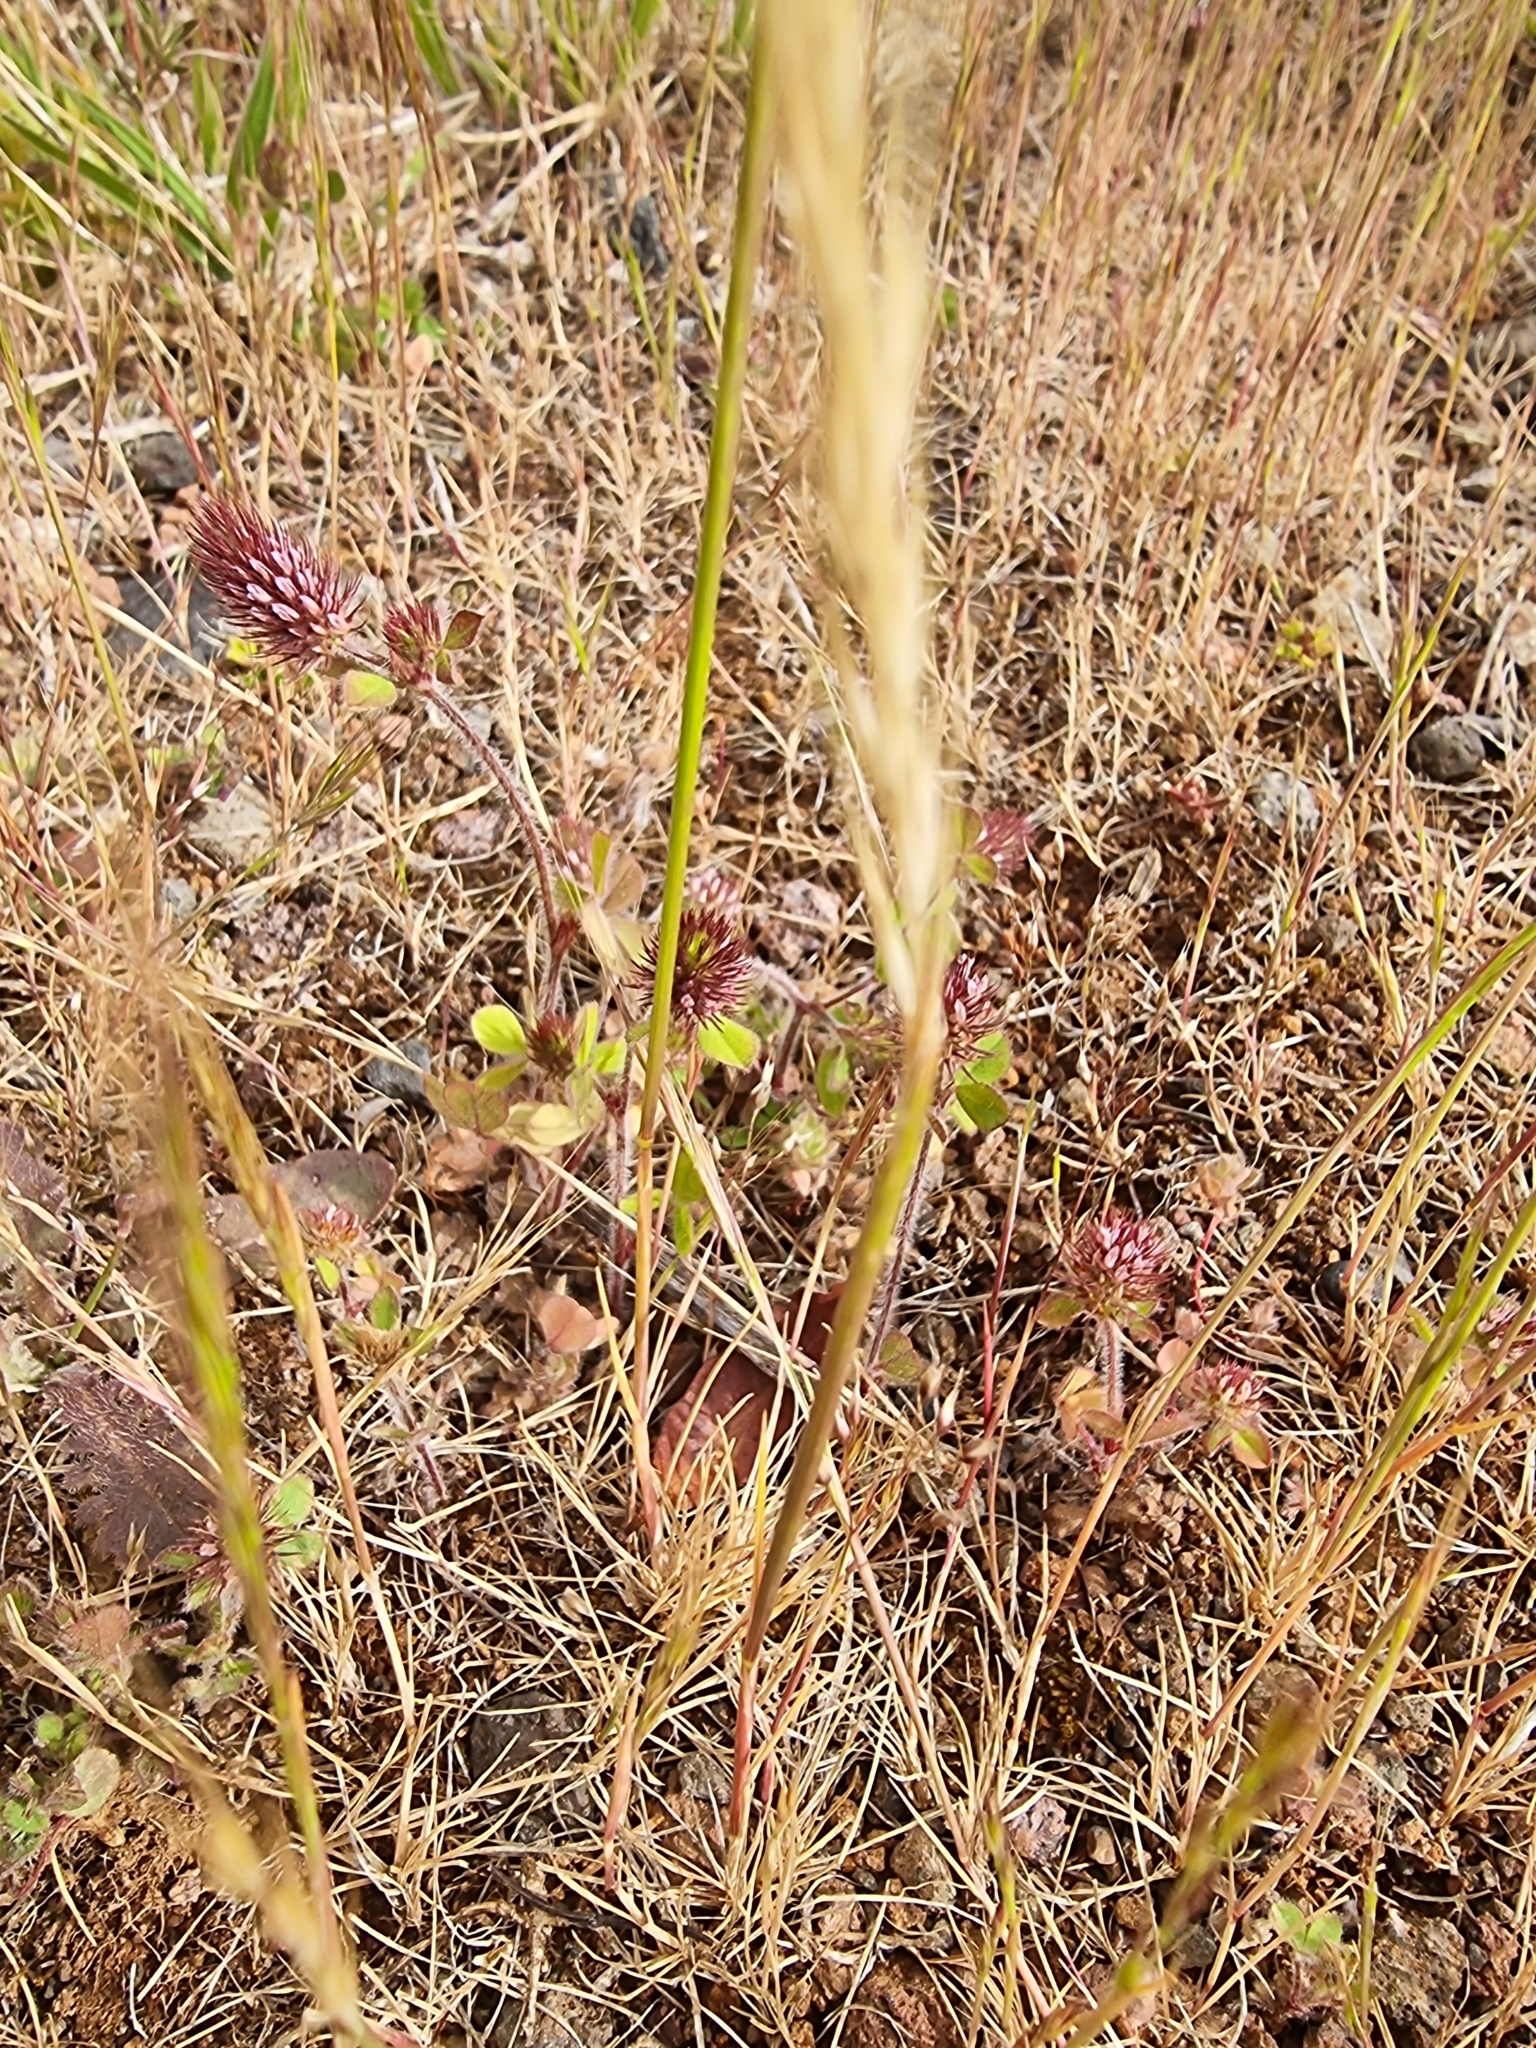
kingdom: Plantae
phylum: Tracheophyta
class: Magnoliopsida
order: Fabales
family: Fabaceae
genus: Trifolium
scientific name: Trifolium ligusticum
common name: Ligurian clover
